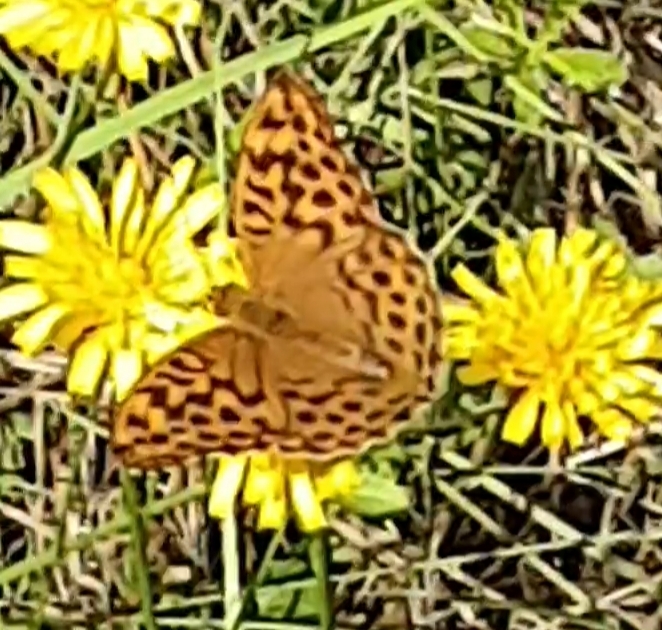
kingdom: Animalia
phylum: Arthropoda
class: Insecta
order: Lepidoptera
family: Nymphalidae
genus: Argynnis
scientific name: Argynnis paphia
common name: Silver-washed fritillary
